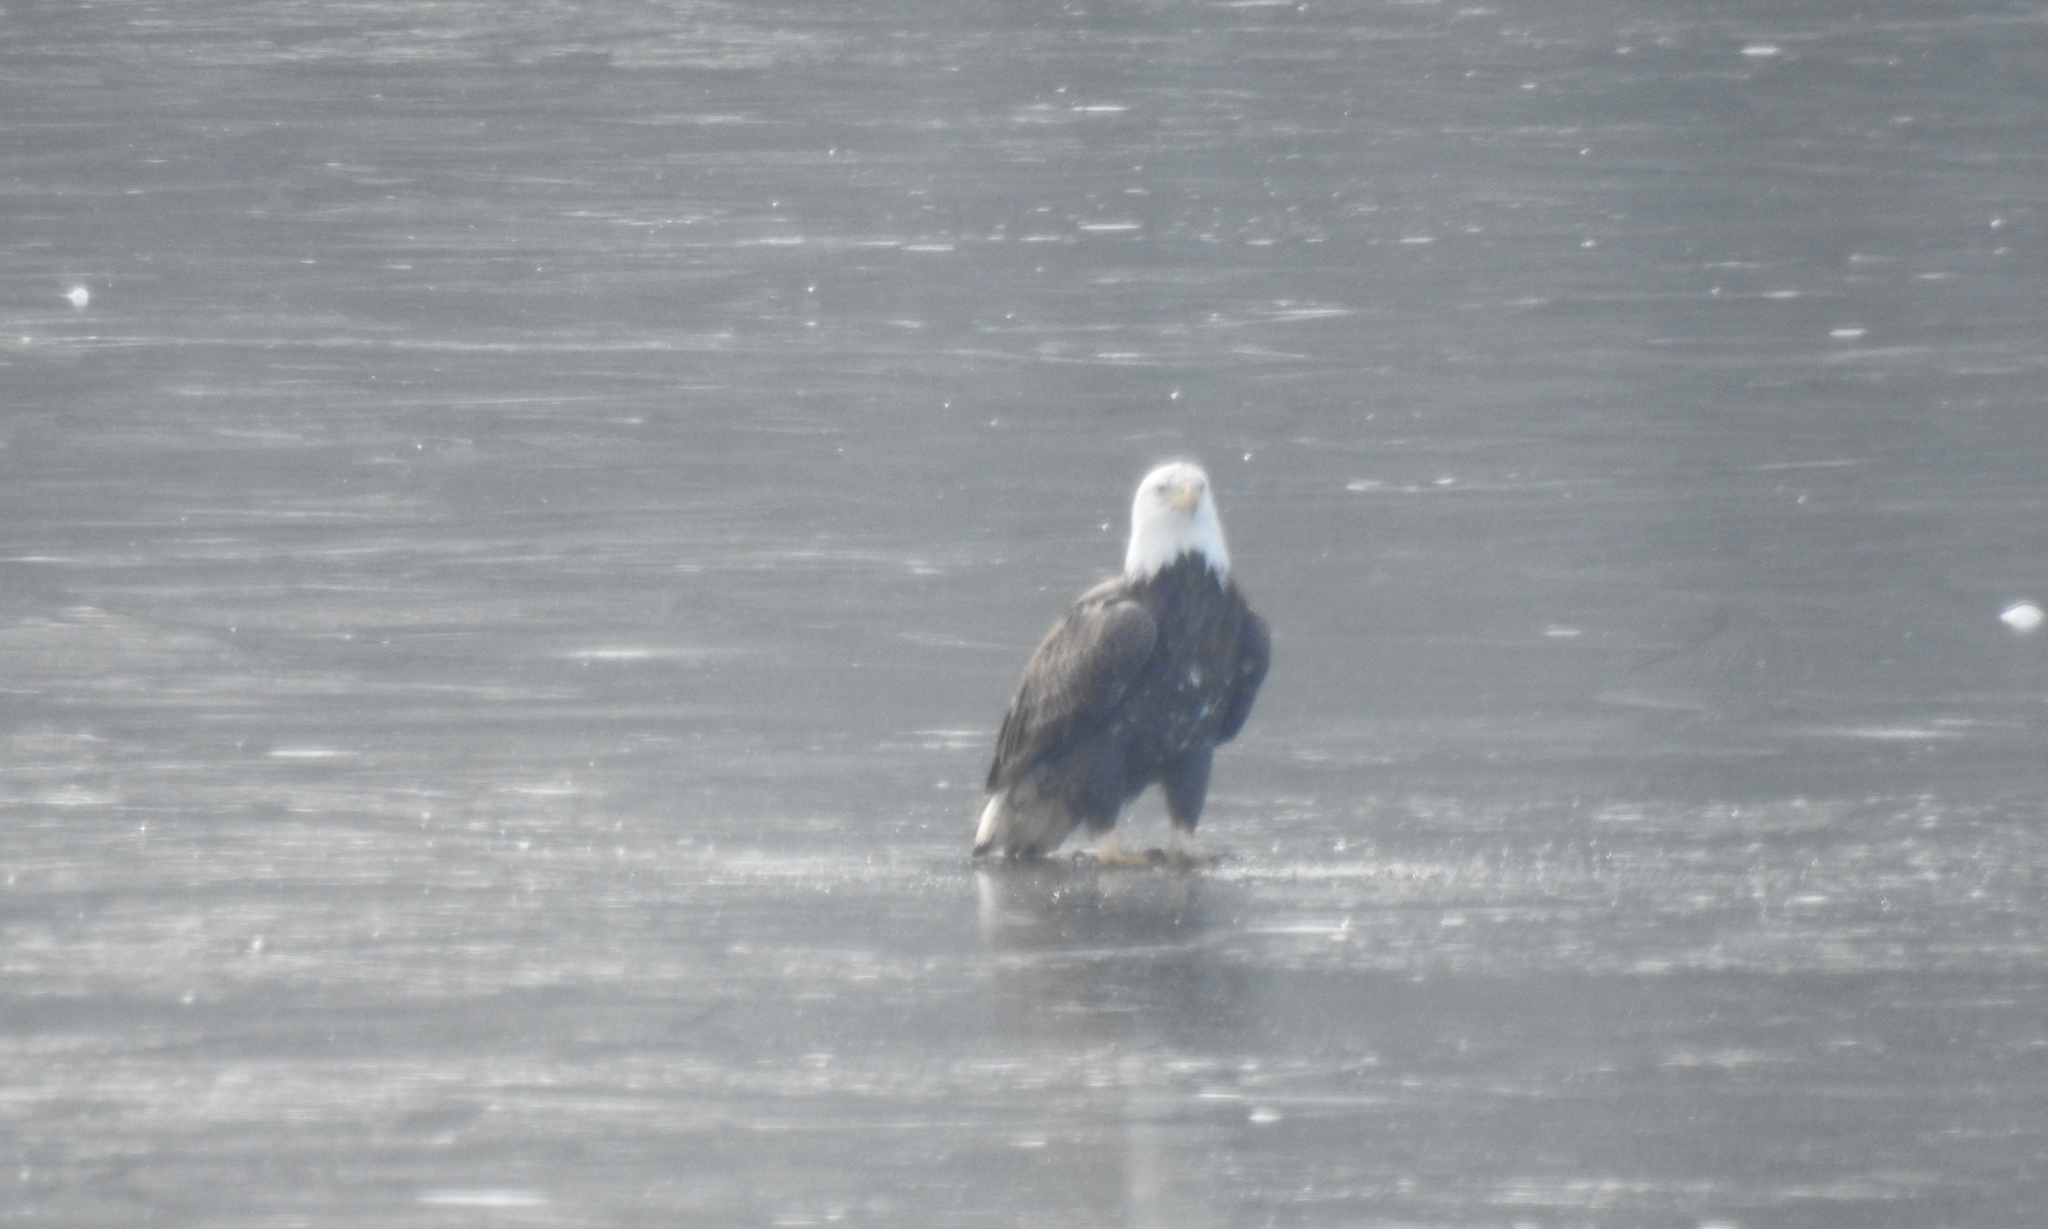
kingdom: Animalia
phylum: Chordata
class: Aves
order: Accipitriformes
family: Accipitridae
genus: Haliaeetus
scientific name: Haliaeetus leucocephalus
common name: Bald eagle
